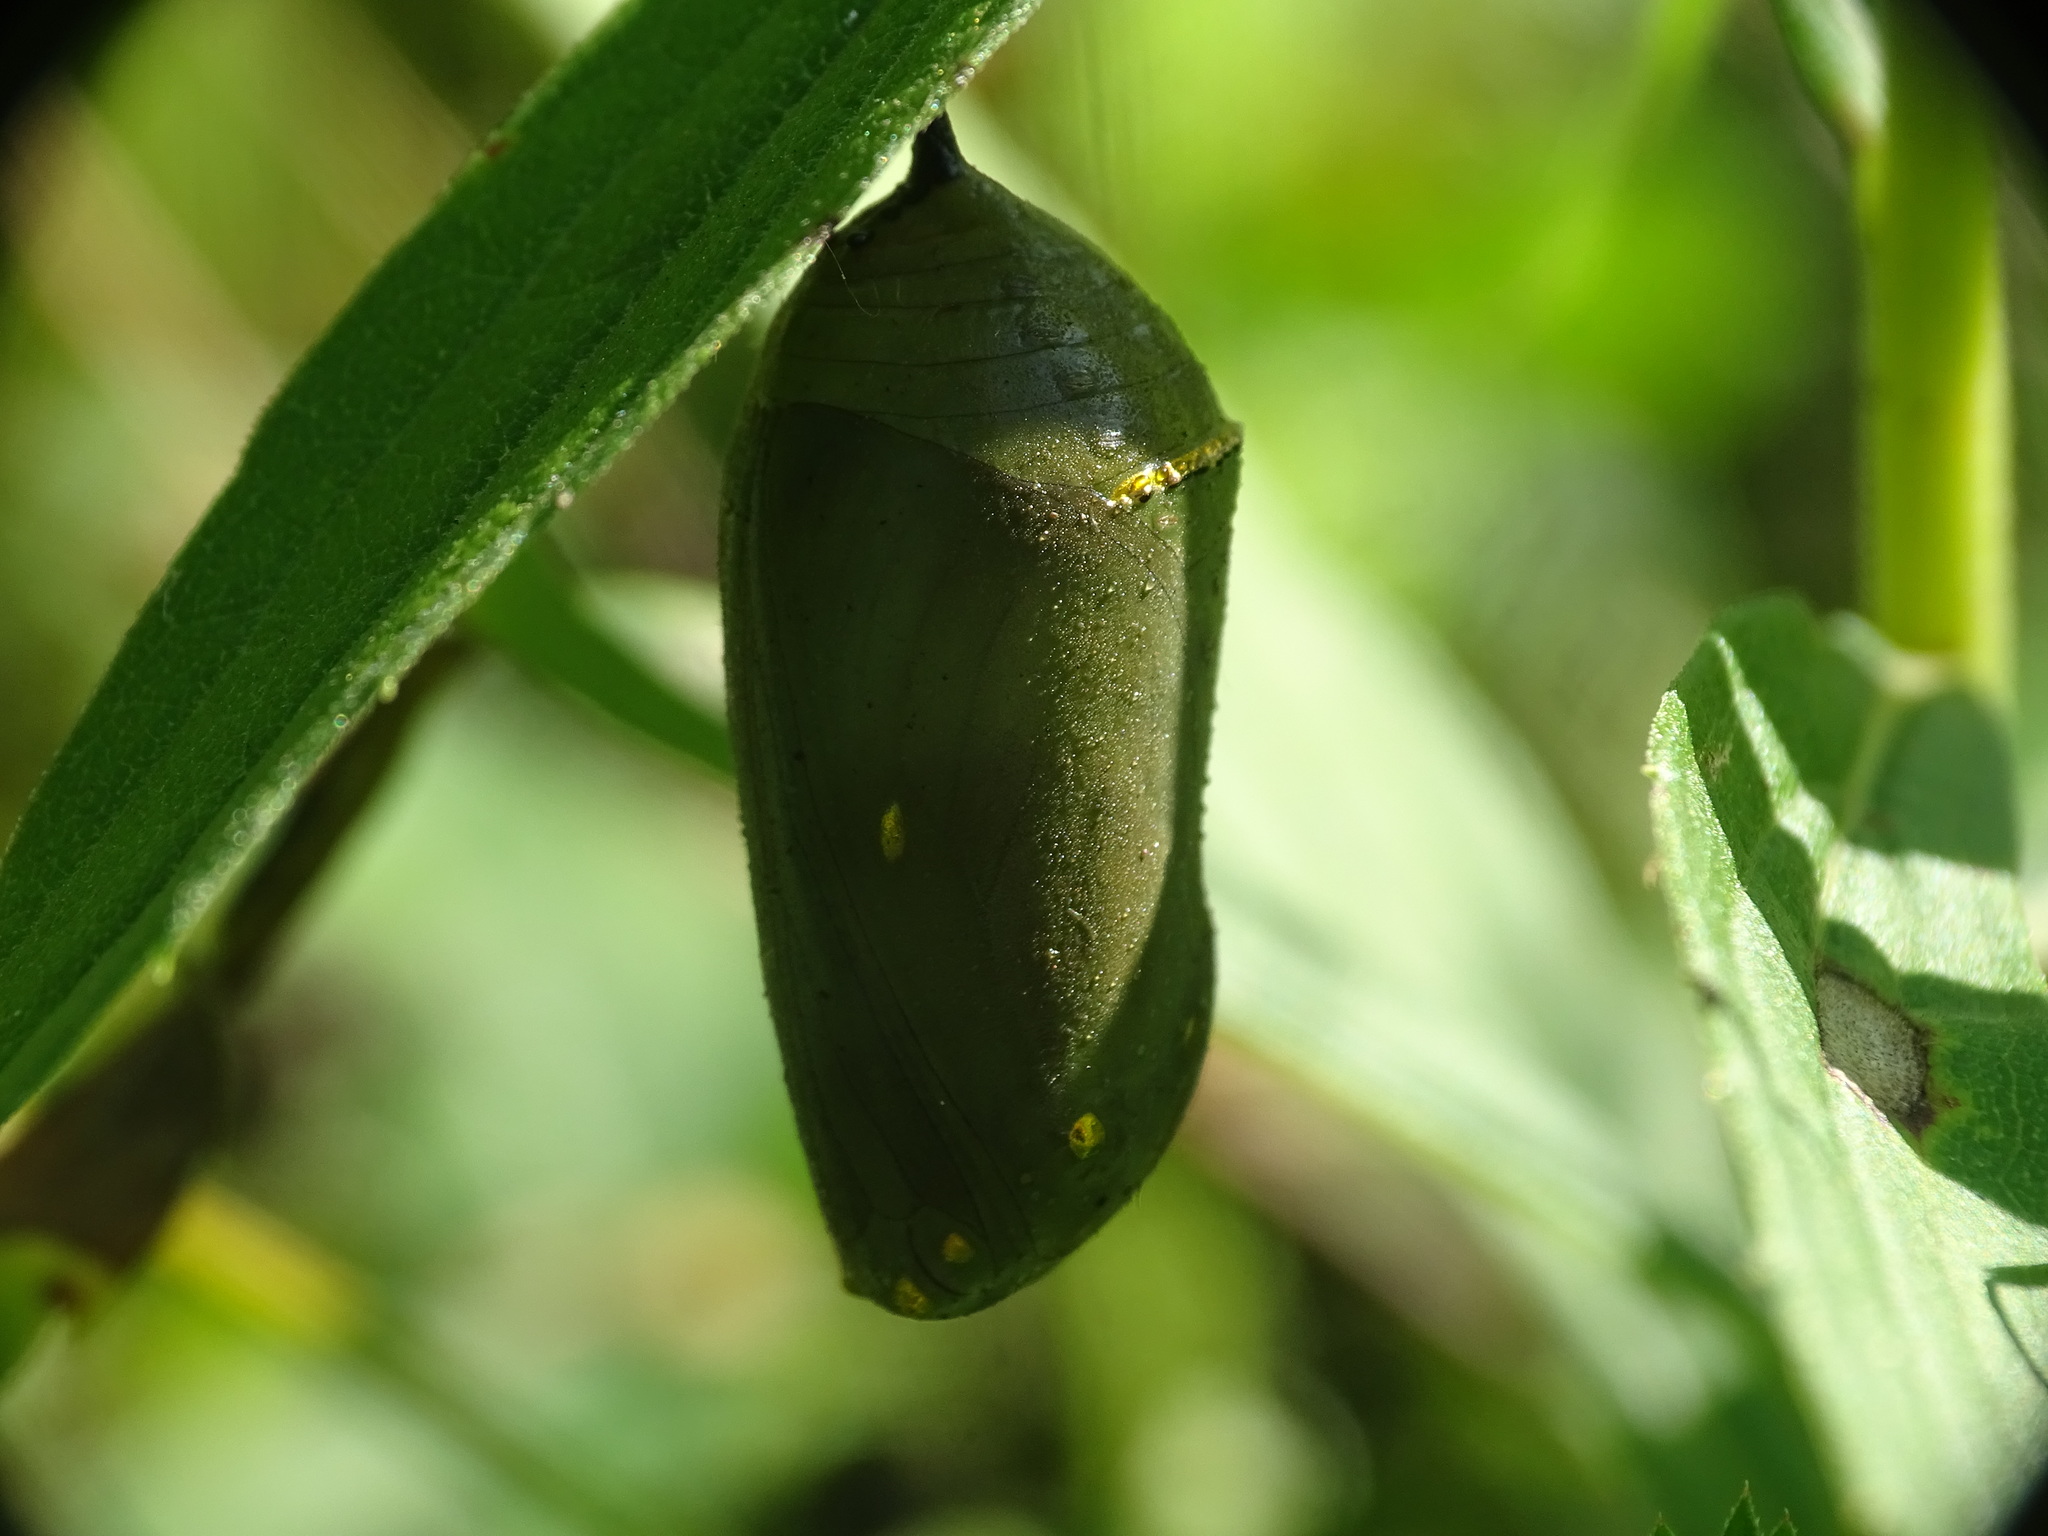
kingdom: Animalia
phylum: Arthropoda
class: Insecta
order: Lepidoptera
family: Nymphalidae
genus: Danaus
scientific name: Danaus plexippus
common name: Monarch
